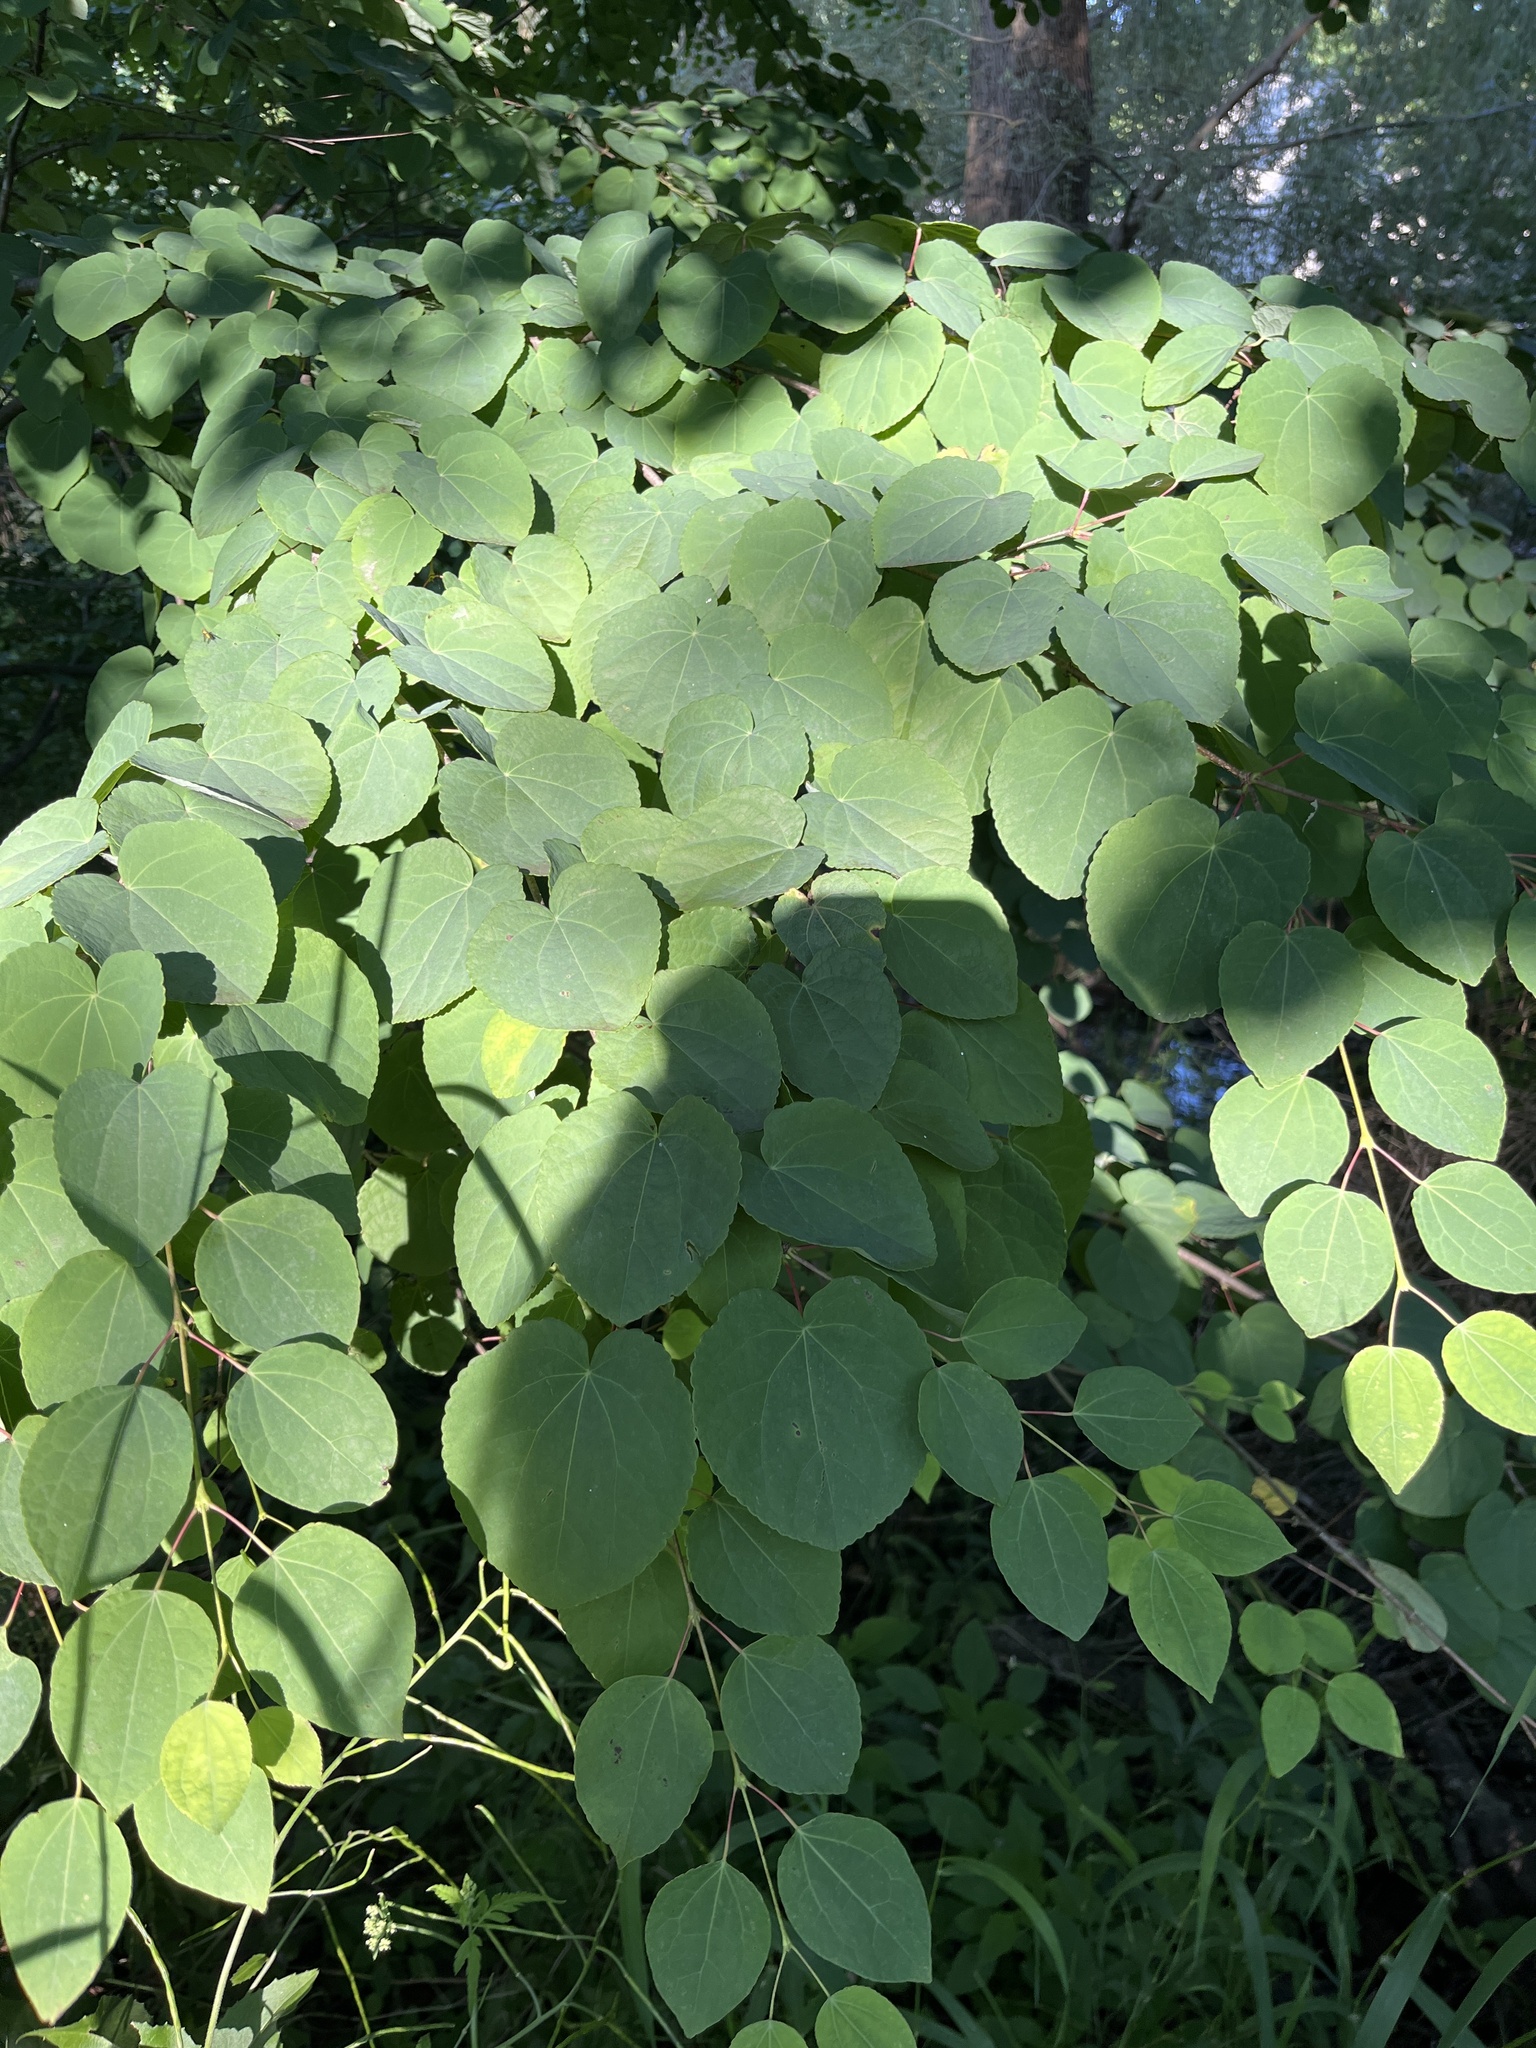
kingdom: Plantae
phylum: Tracheophyta
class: Magnoliopsida
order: Saxifragales
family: Cercidiphyllaceae
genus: Cercidiphyllum
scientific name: Cercidiphyllum japonicum
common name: Katsura tree
